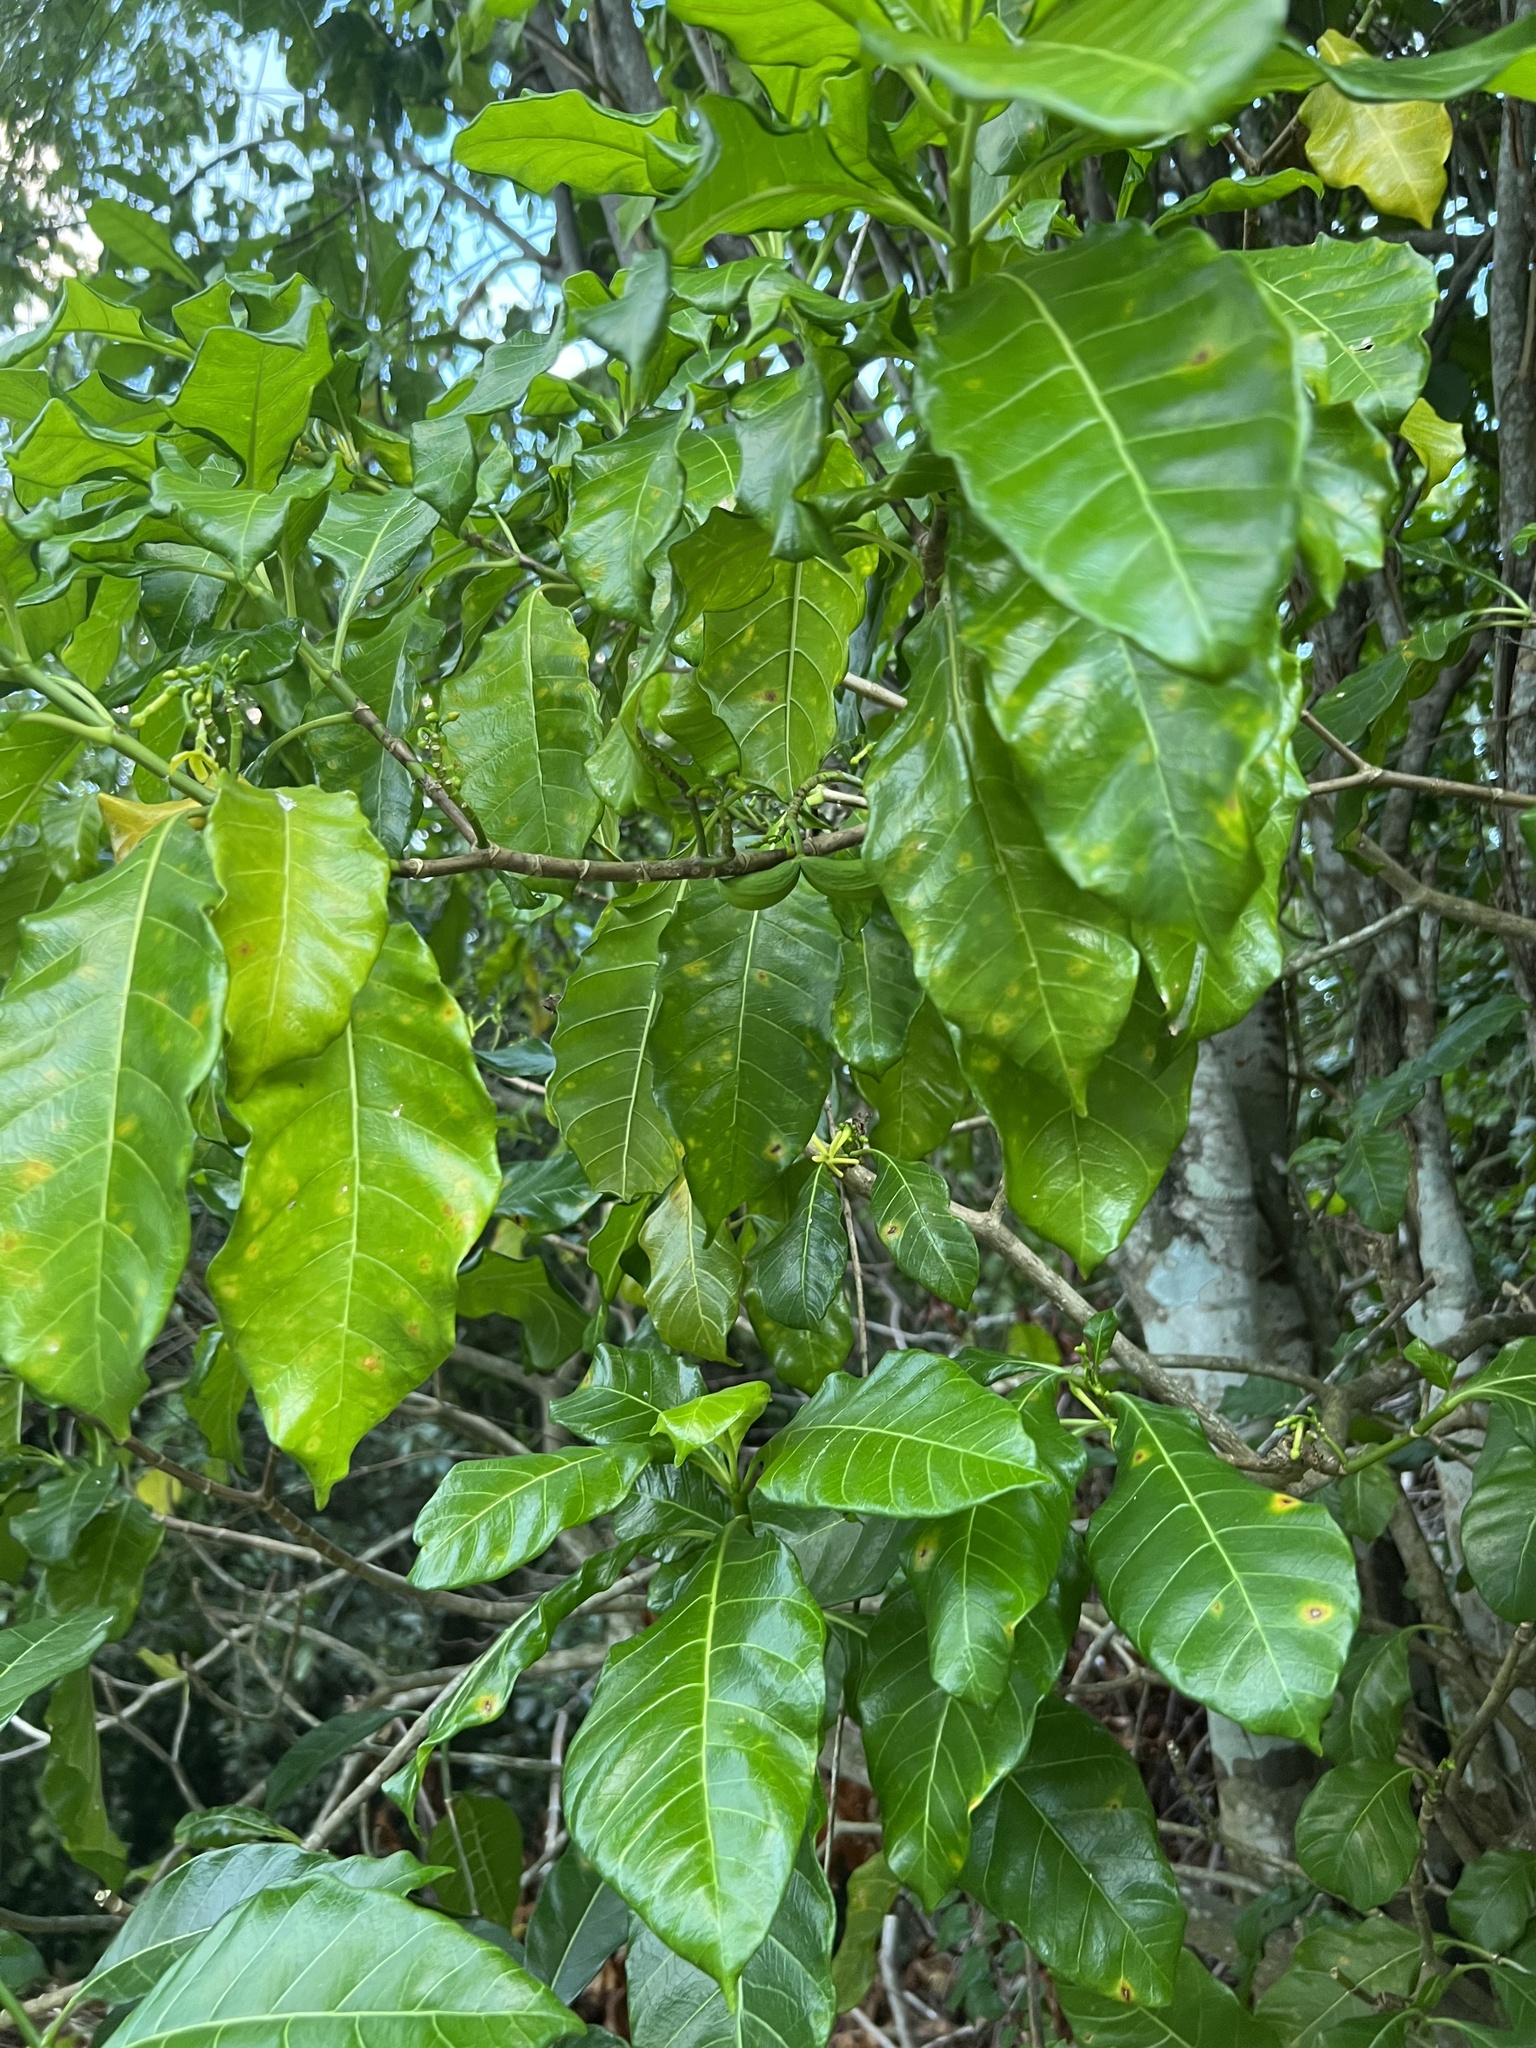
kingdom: Plantae
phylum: Tracheophyta
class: Magnoliopsida
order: Gentianales
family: Apocynaceae
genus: Tabernaemontana
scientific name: Tabernaemontana laurifolia
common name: Slingshot
